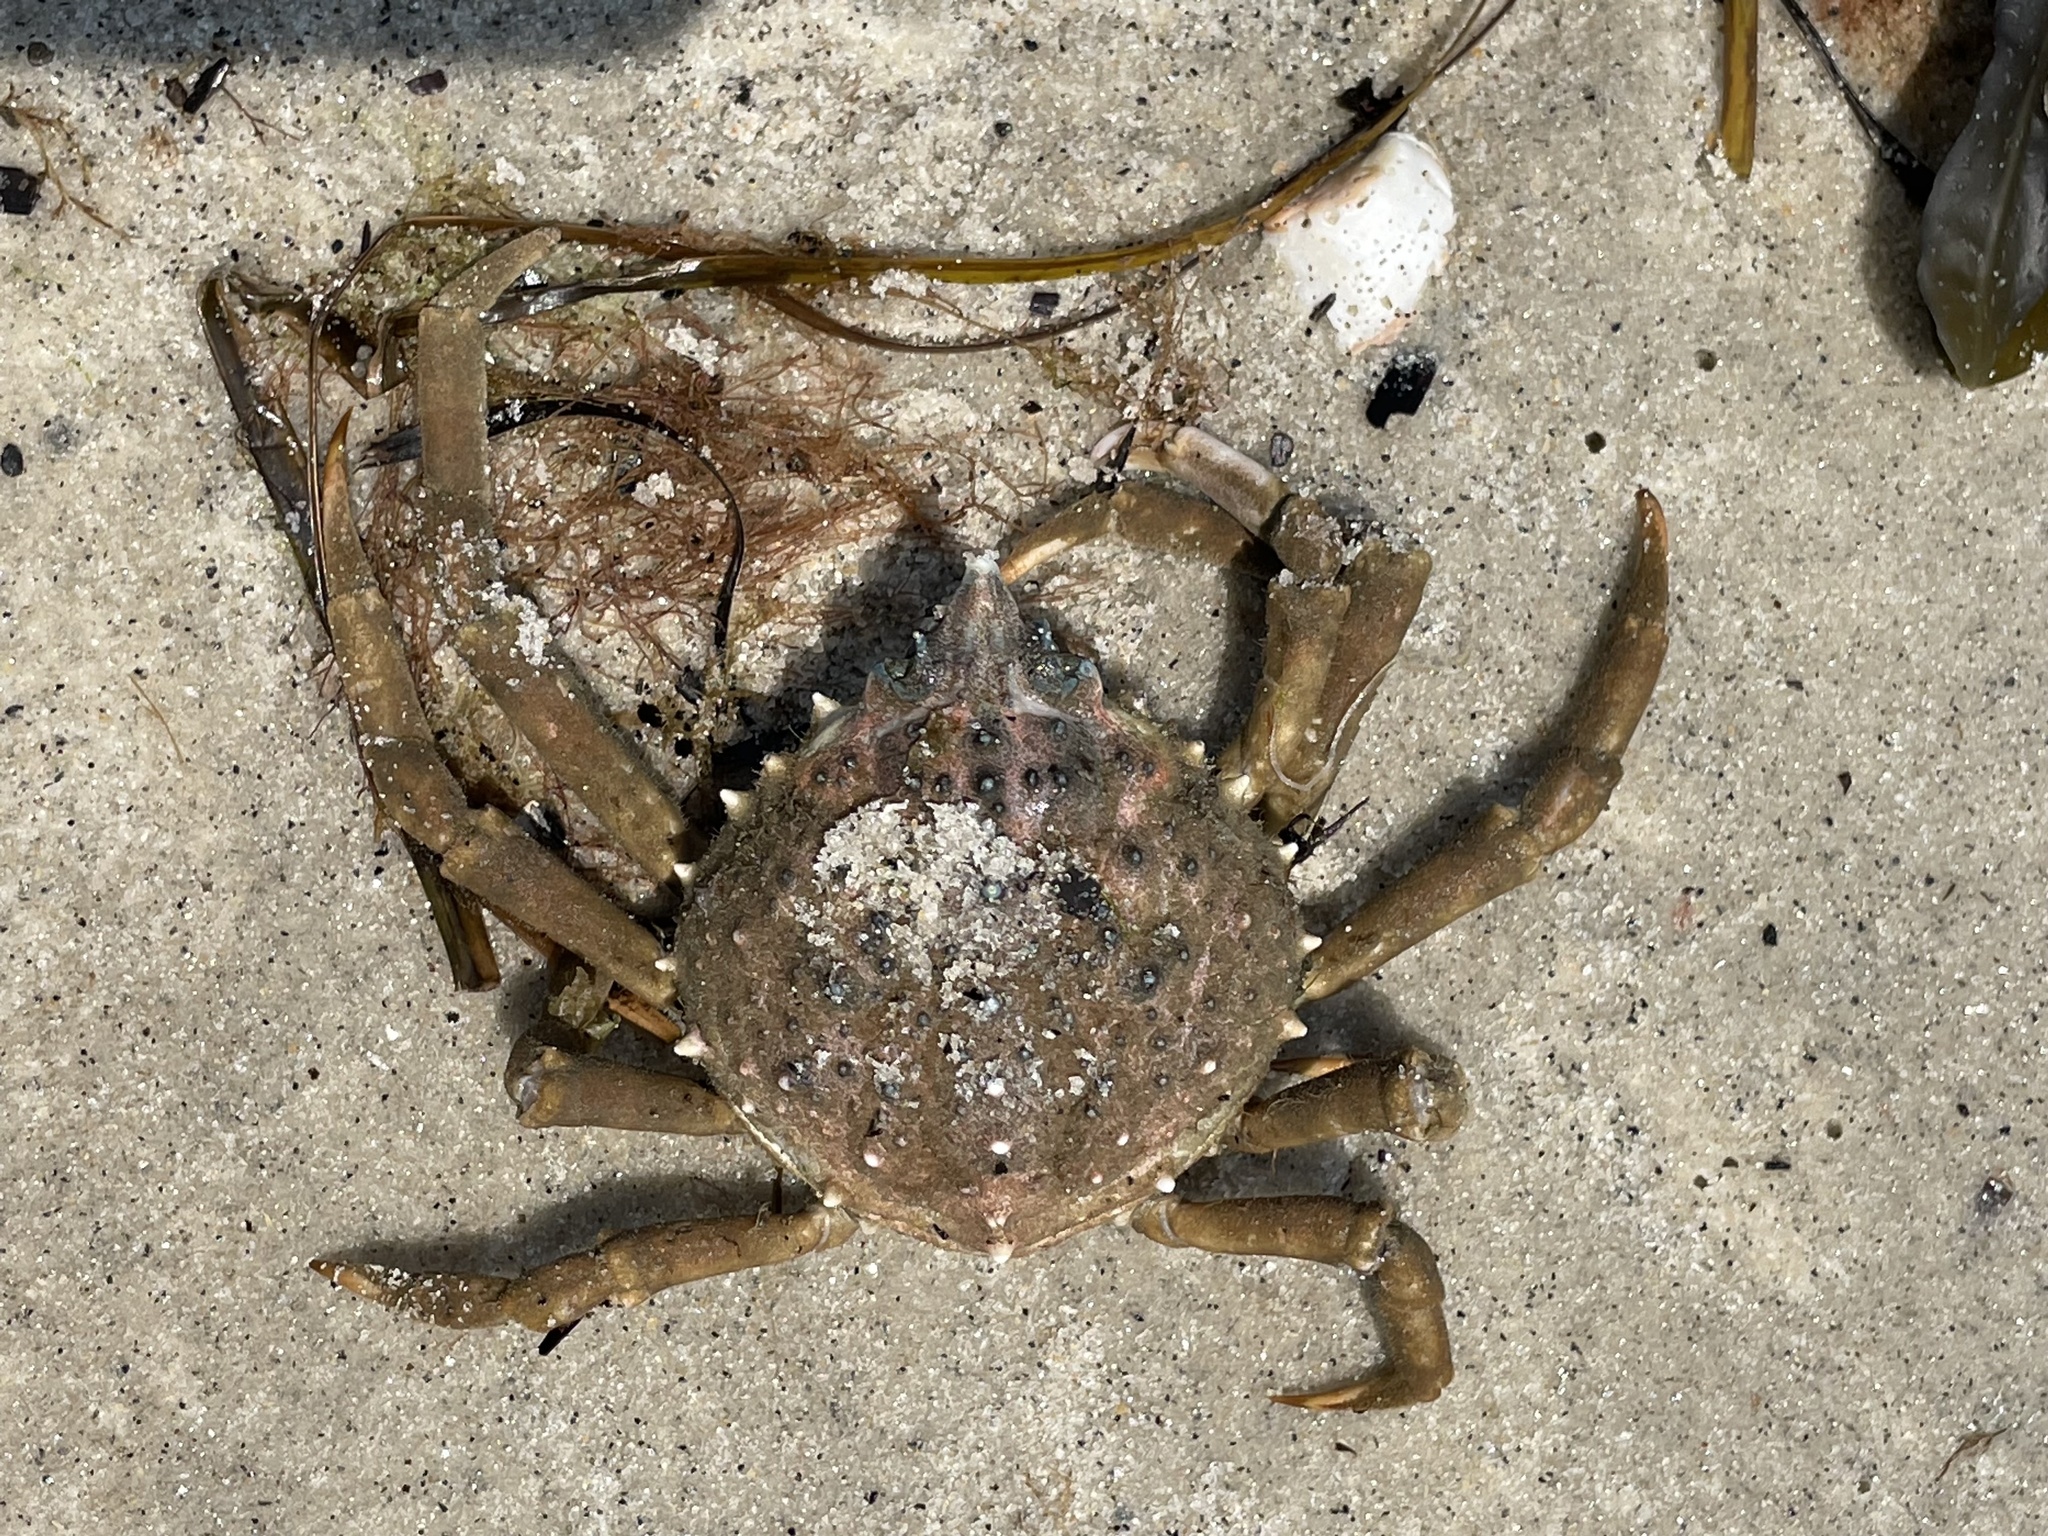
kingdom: Animalia
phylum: Arthropoda
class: Malacostraca
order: Decapoda
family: Epialtidae
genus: Libinia
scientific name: Libinia emarginata
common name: Common spider crab
